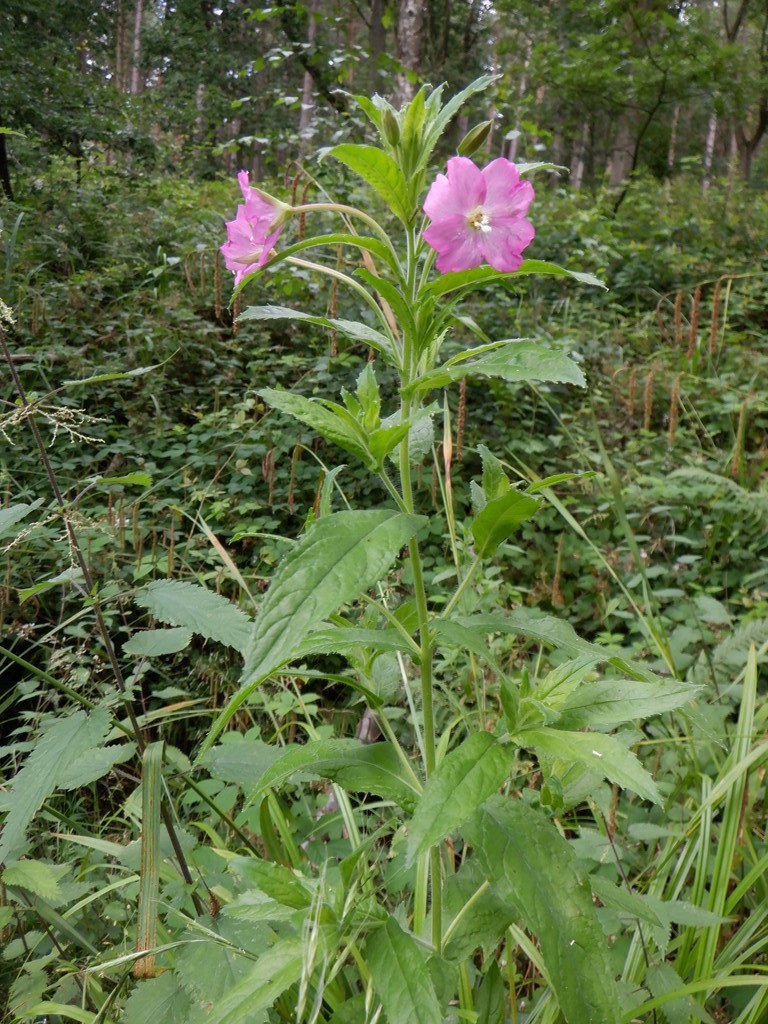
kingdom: Plantae
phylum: Tracheophyta
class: Magnoliopsida
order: Myrtales
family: Onagraceae
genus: Epilobium
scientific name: Epilobium hirsutum
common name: Great willowherb
